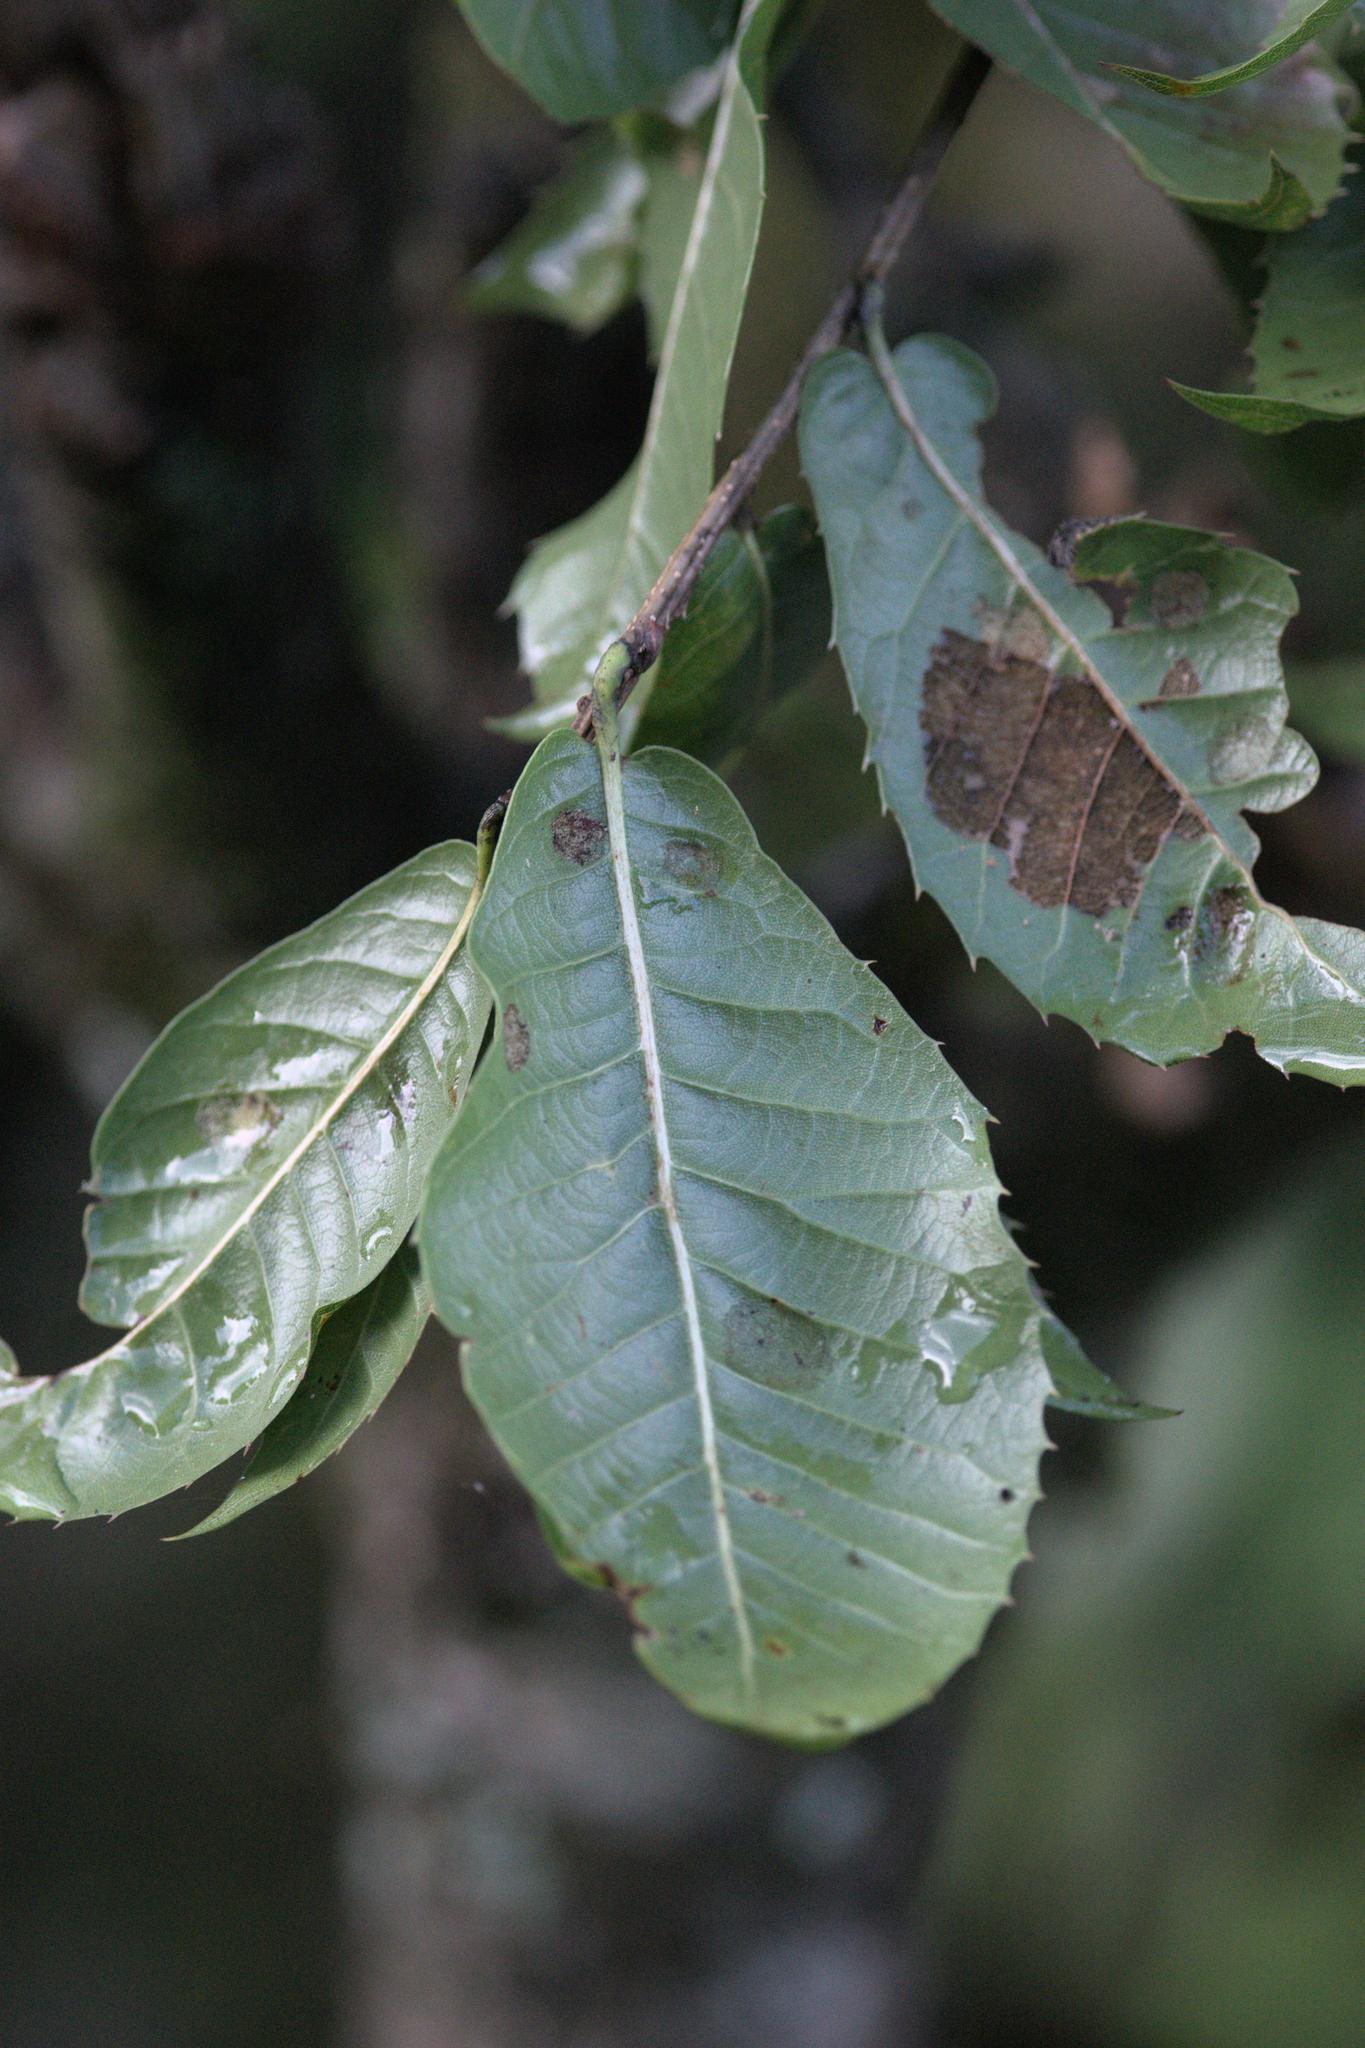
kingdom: Plantae
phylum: Tracheophyta
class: Magnoliopsida
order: Fagales
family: Fagaceae
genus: Quercus
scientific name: Quercus floribunda
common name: Moru
